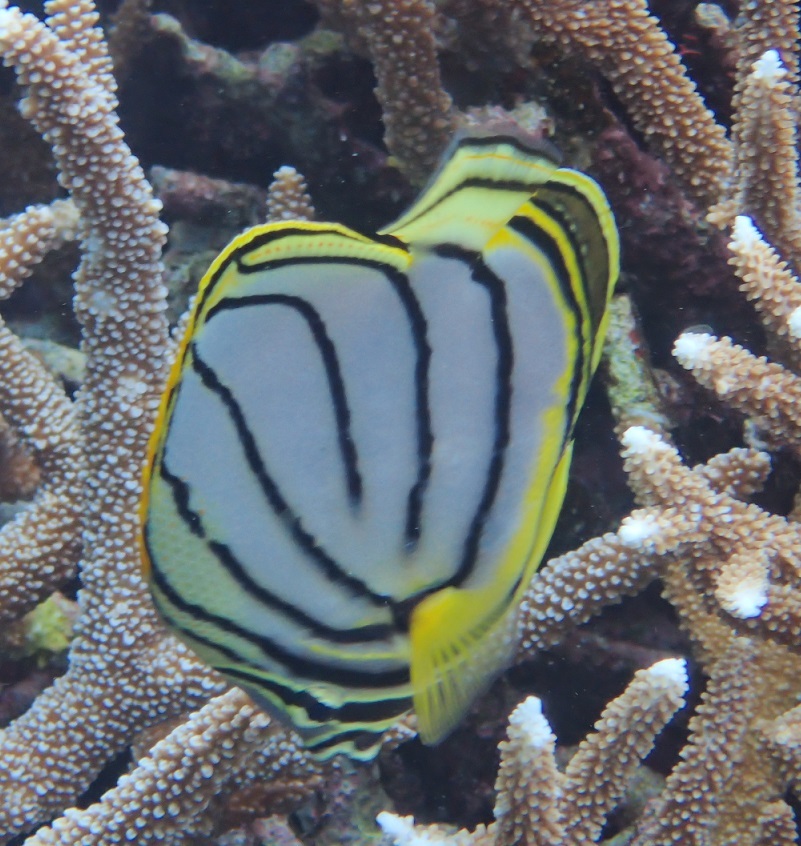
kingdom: Animalia
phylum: Chordata
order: Perciformes
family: Chaetodontidae
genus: Chaetodon
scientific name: Chaetodon meyeri
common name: Meyer's butterflyfish
